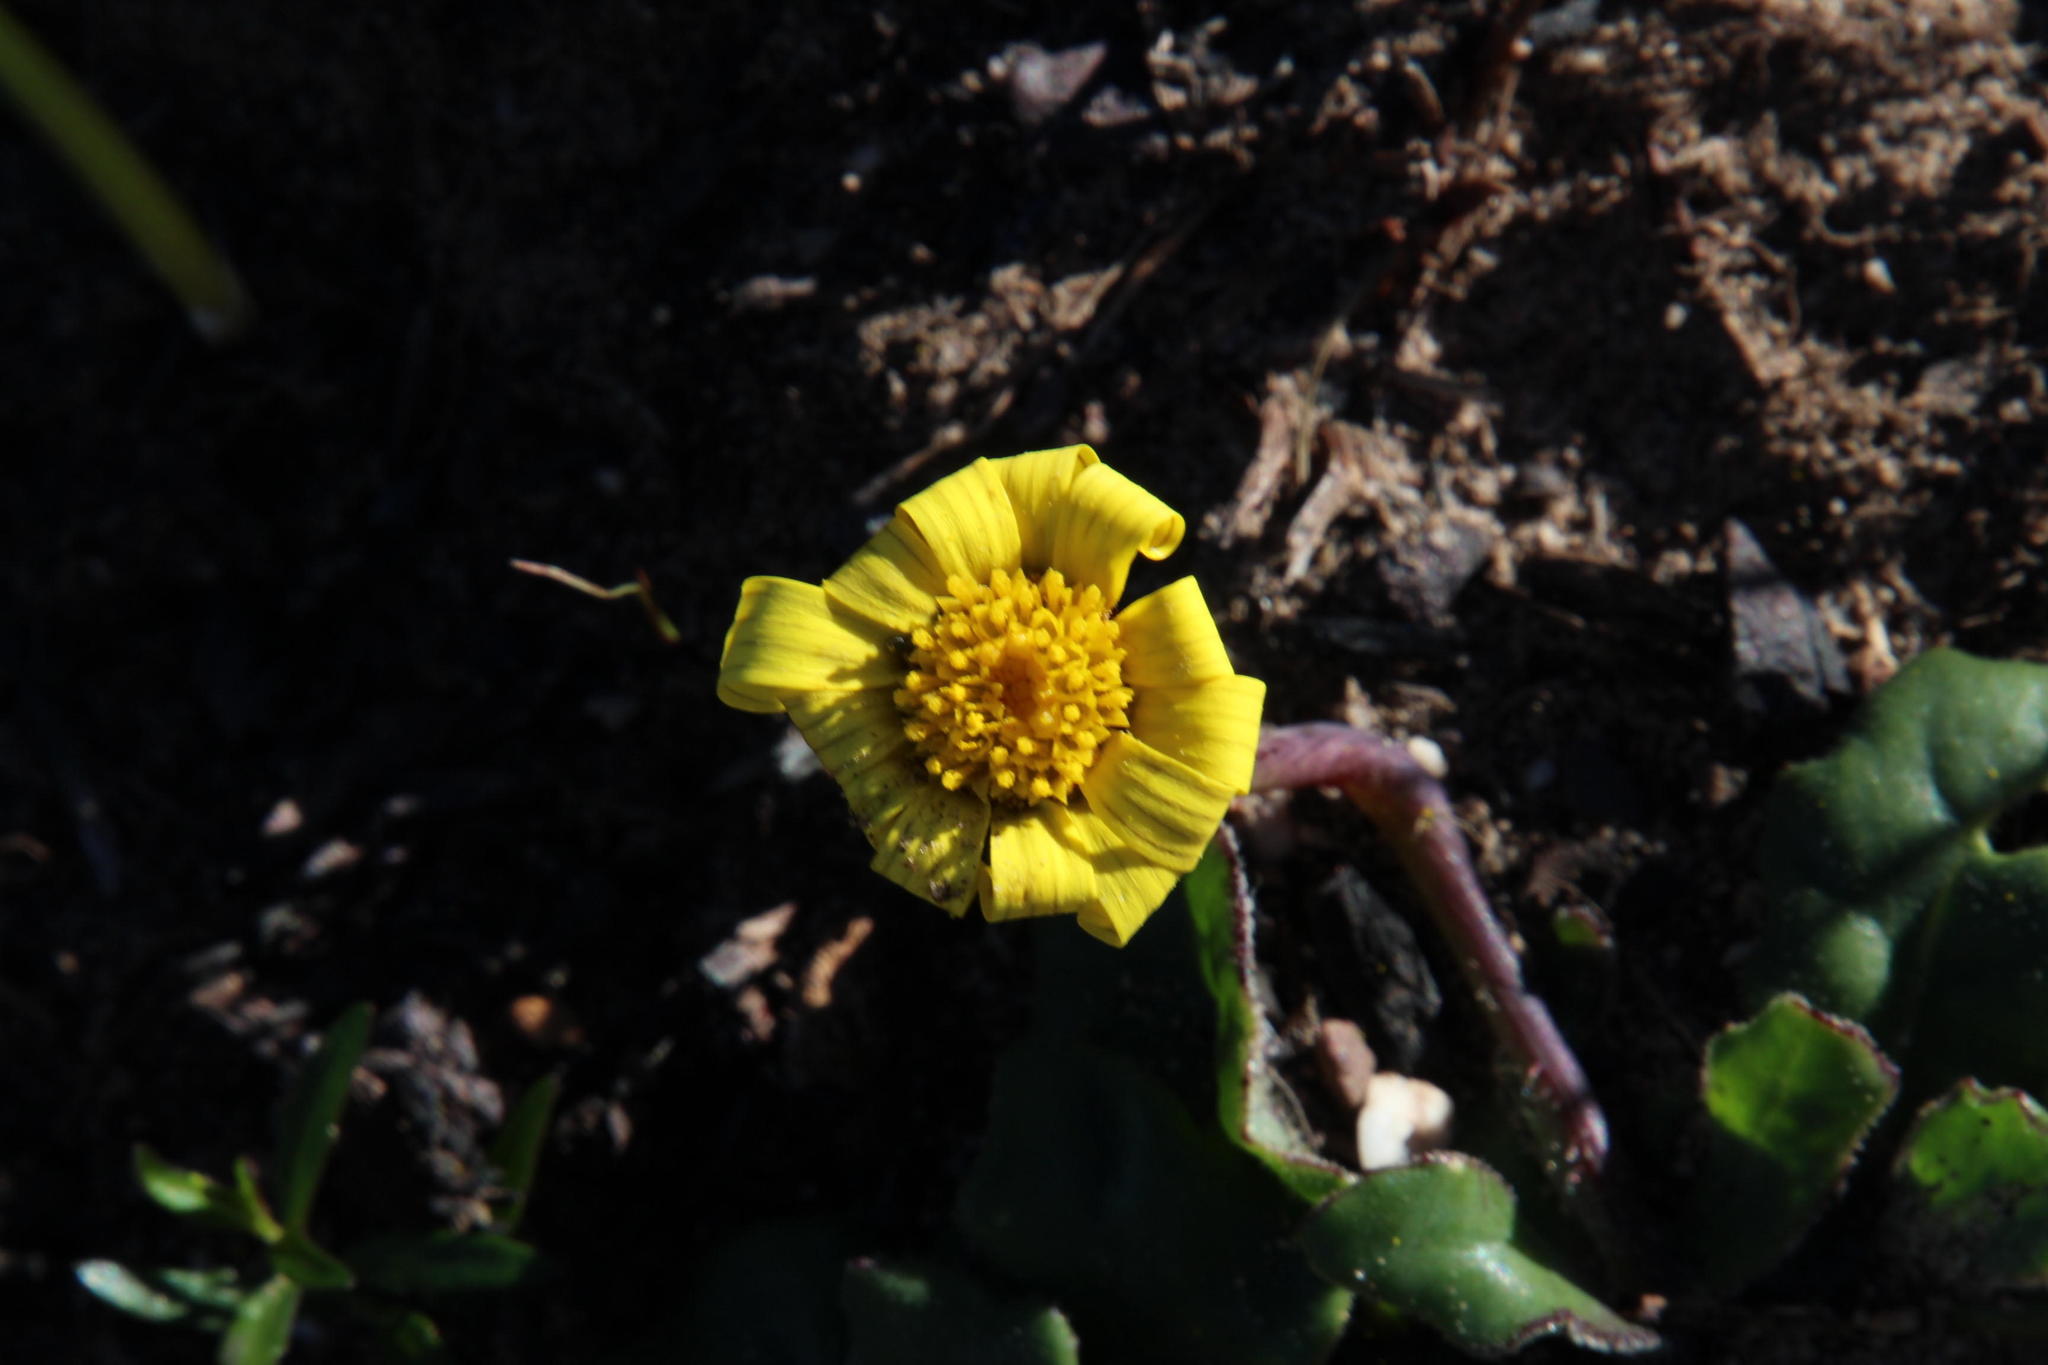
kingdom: Plantae
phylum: Tracheophyta
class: Magnoliopsida
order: Asterales
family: Asteraceae
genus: Othonna
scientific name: Othonna heterophylla
